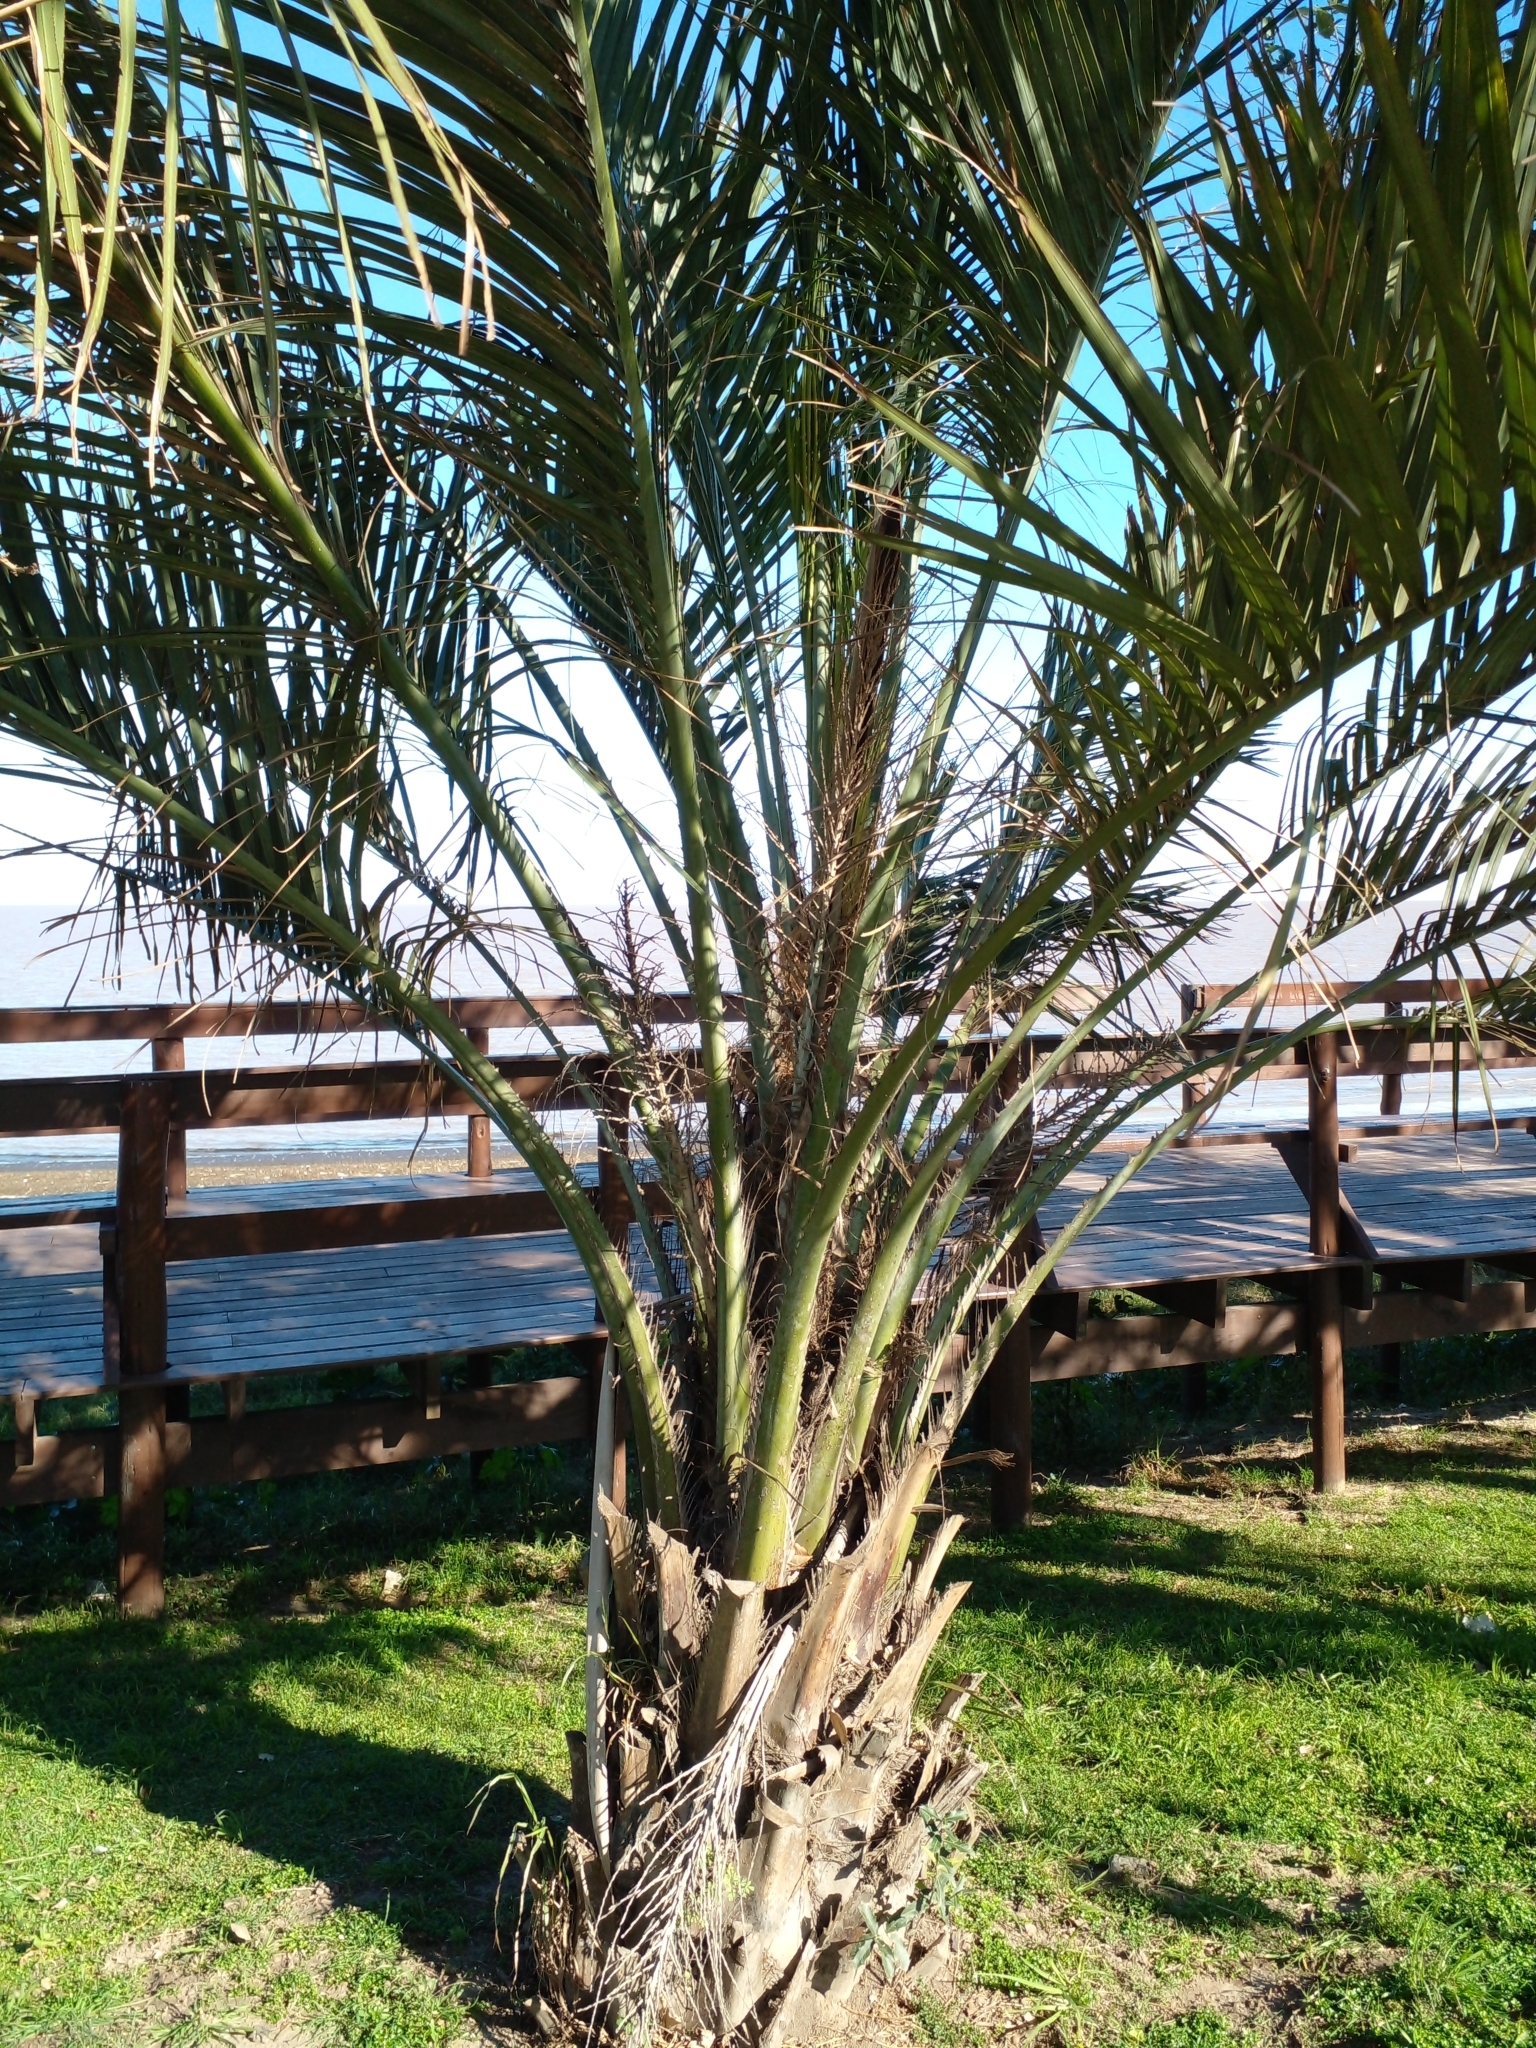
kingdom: Plantae
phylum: Tracheophyta
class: Liliopsida
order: Arecales
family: Arecaceae
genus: Butia
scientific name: Butia odorata
